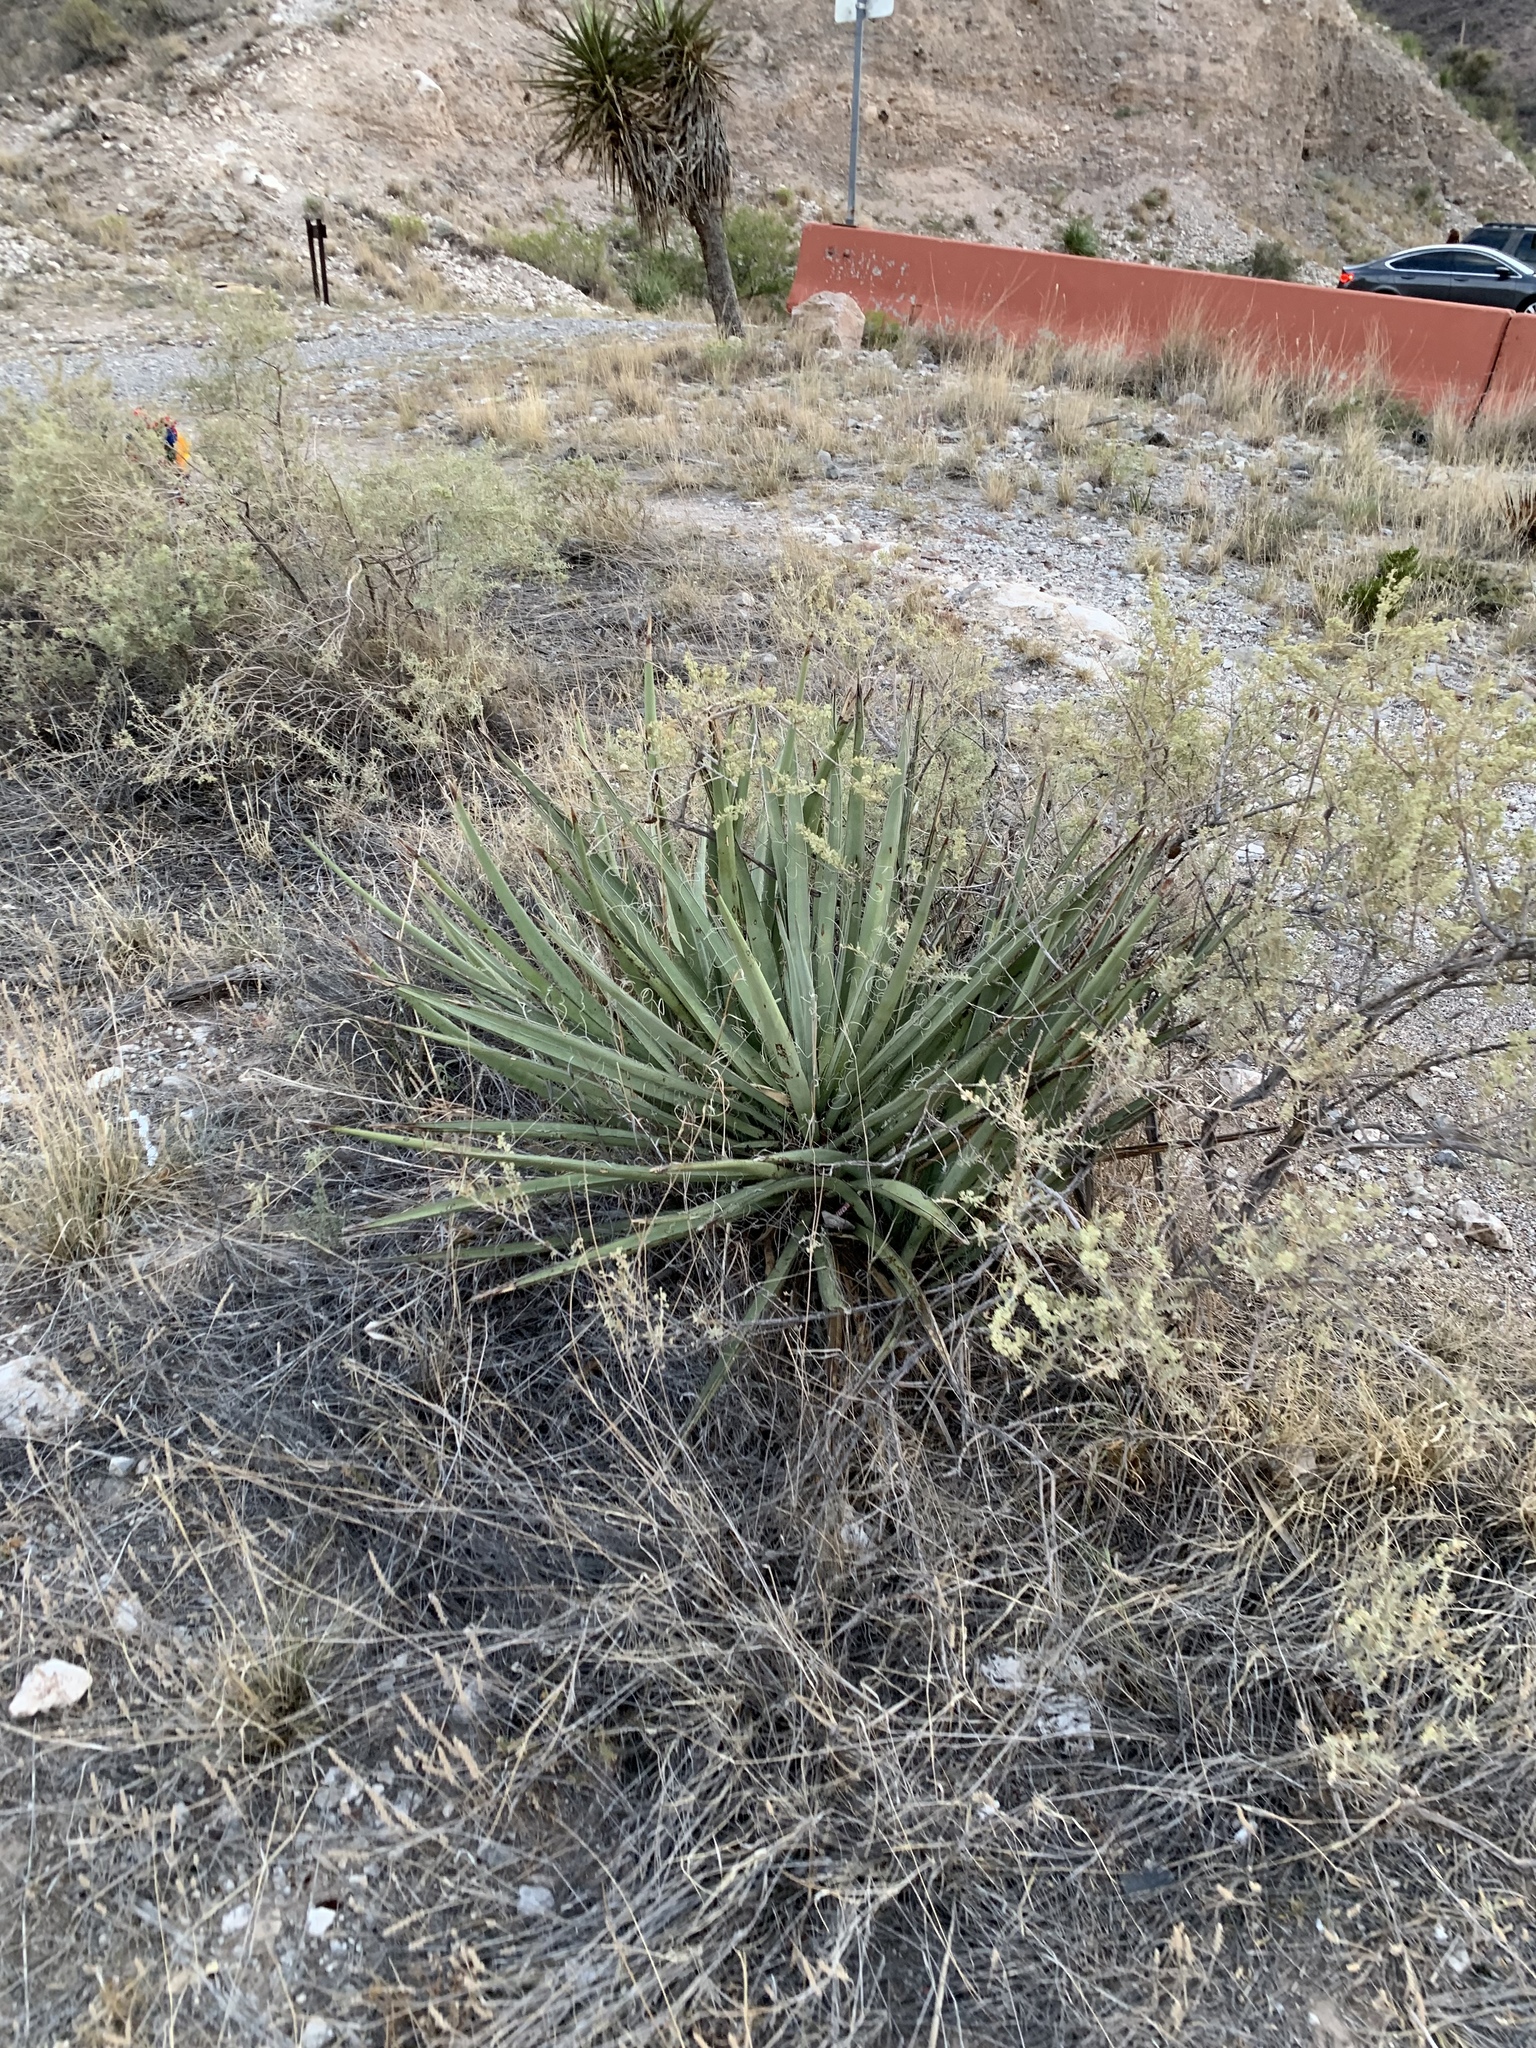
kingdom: Plantae
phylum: Tracheophyta
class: Liliopsida
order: Asparagales
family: Asparagaceae
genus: Yucca
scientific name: Yucca baccata
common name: Banana yucca
